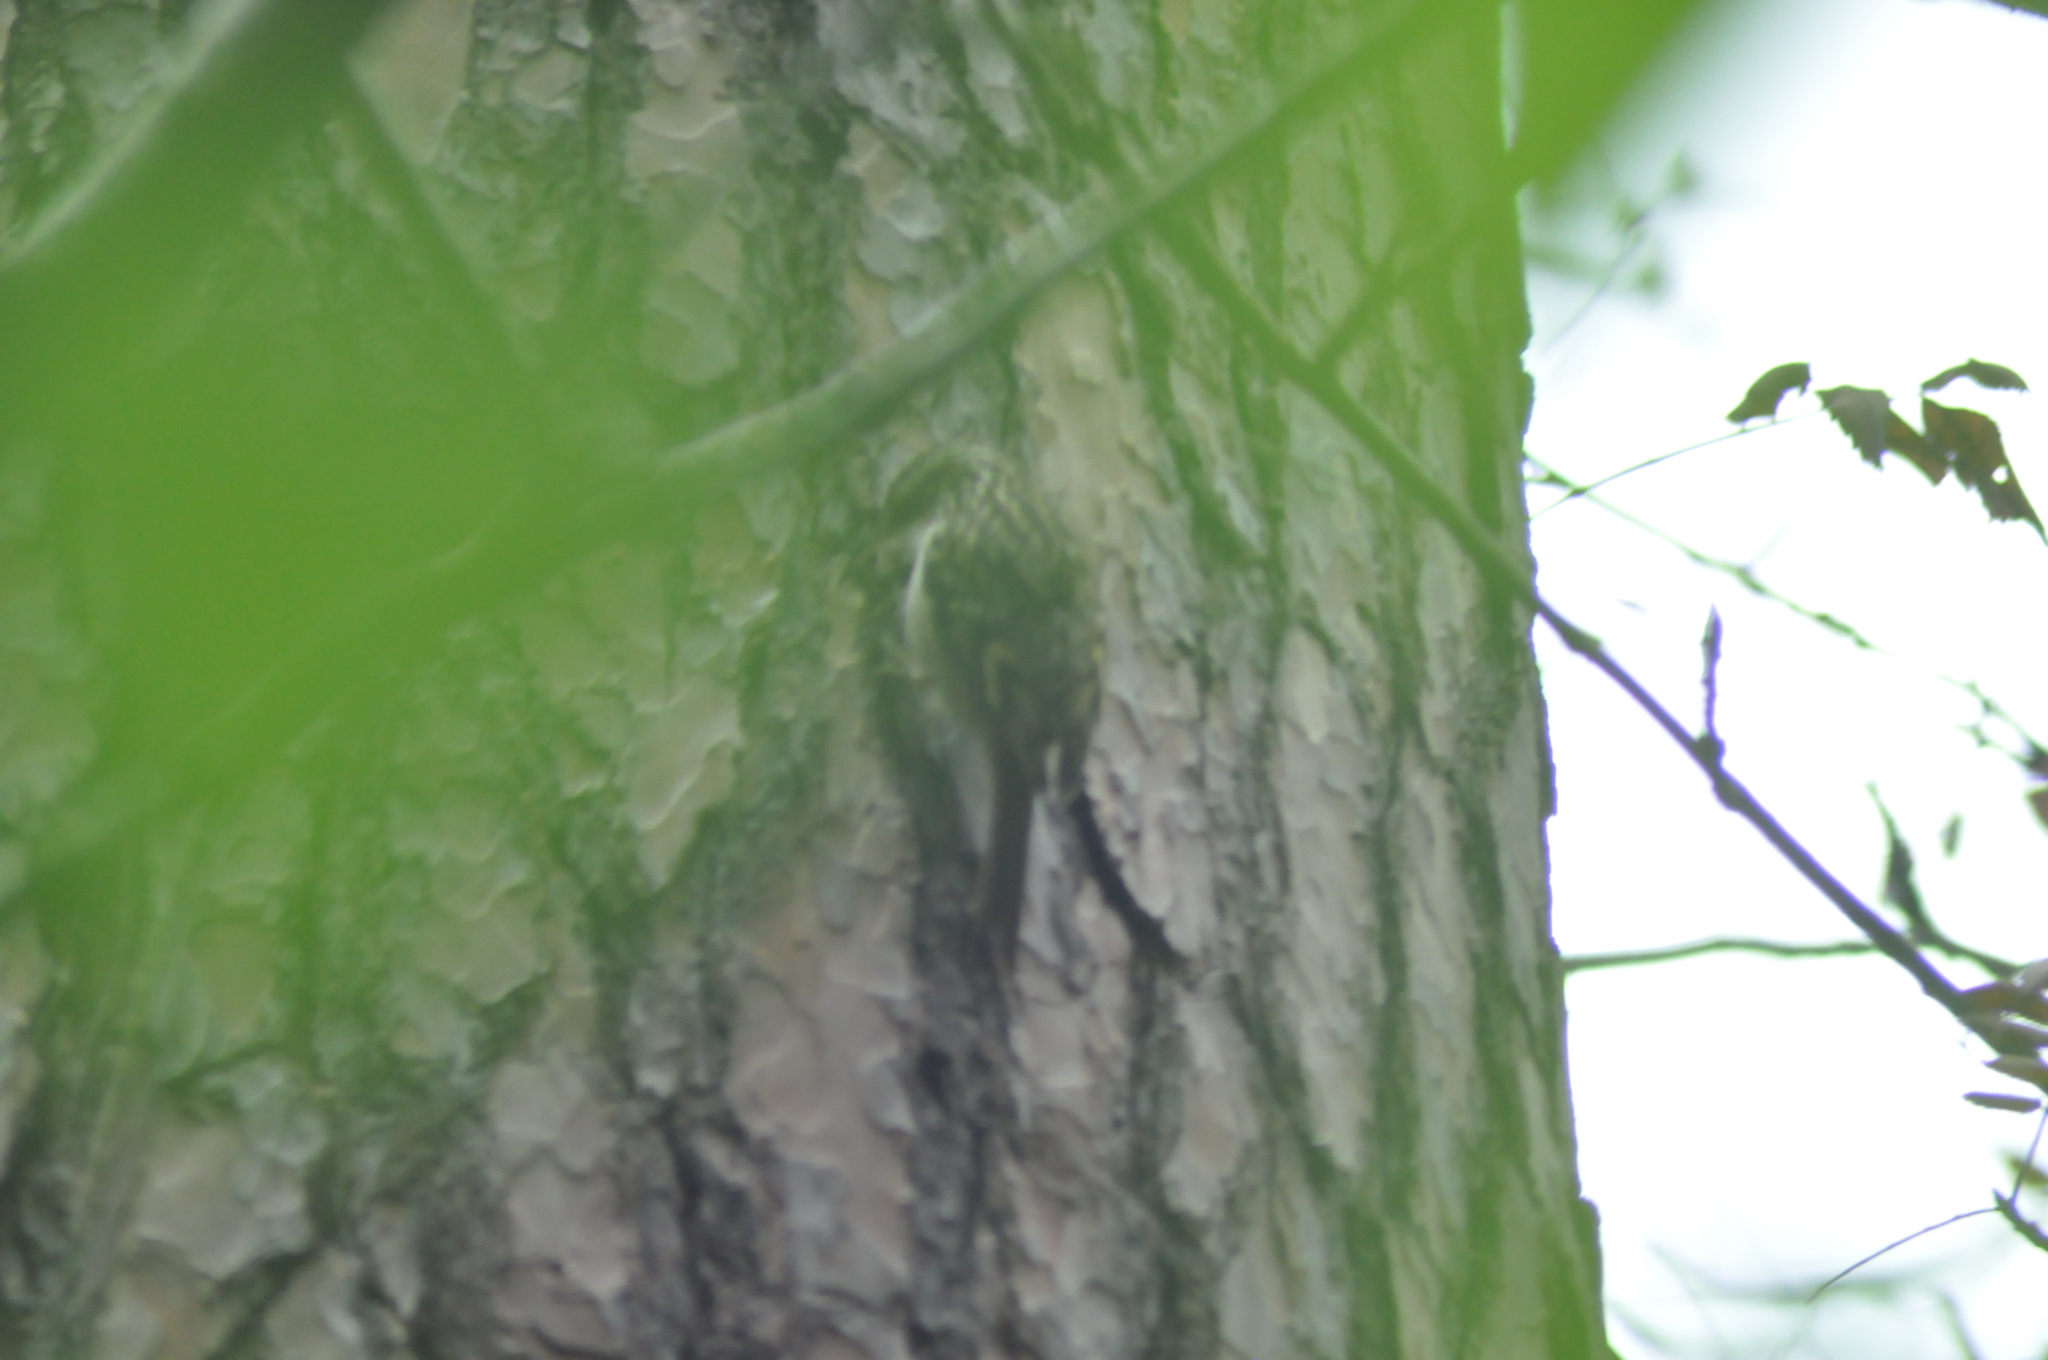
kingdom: Animalia
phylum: Chordata
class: Aves
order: Passeriformes
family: Certhiidae
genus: Certhia
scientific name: Certhia brachydactyla
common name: Short-toed treecreeper
